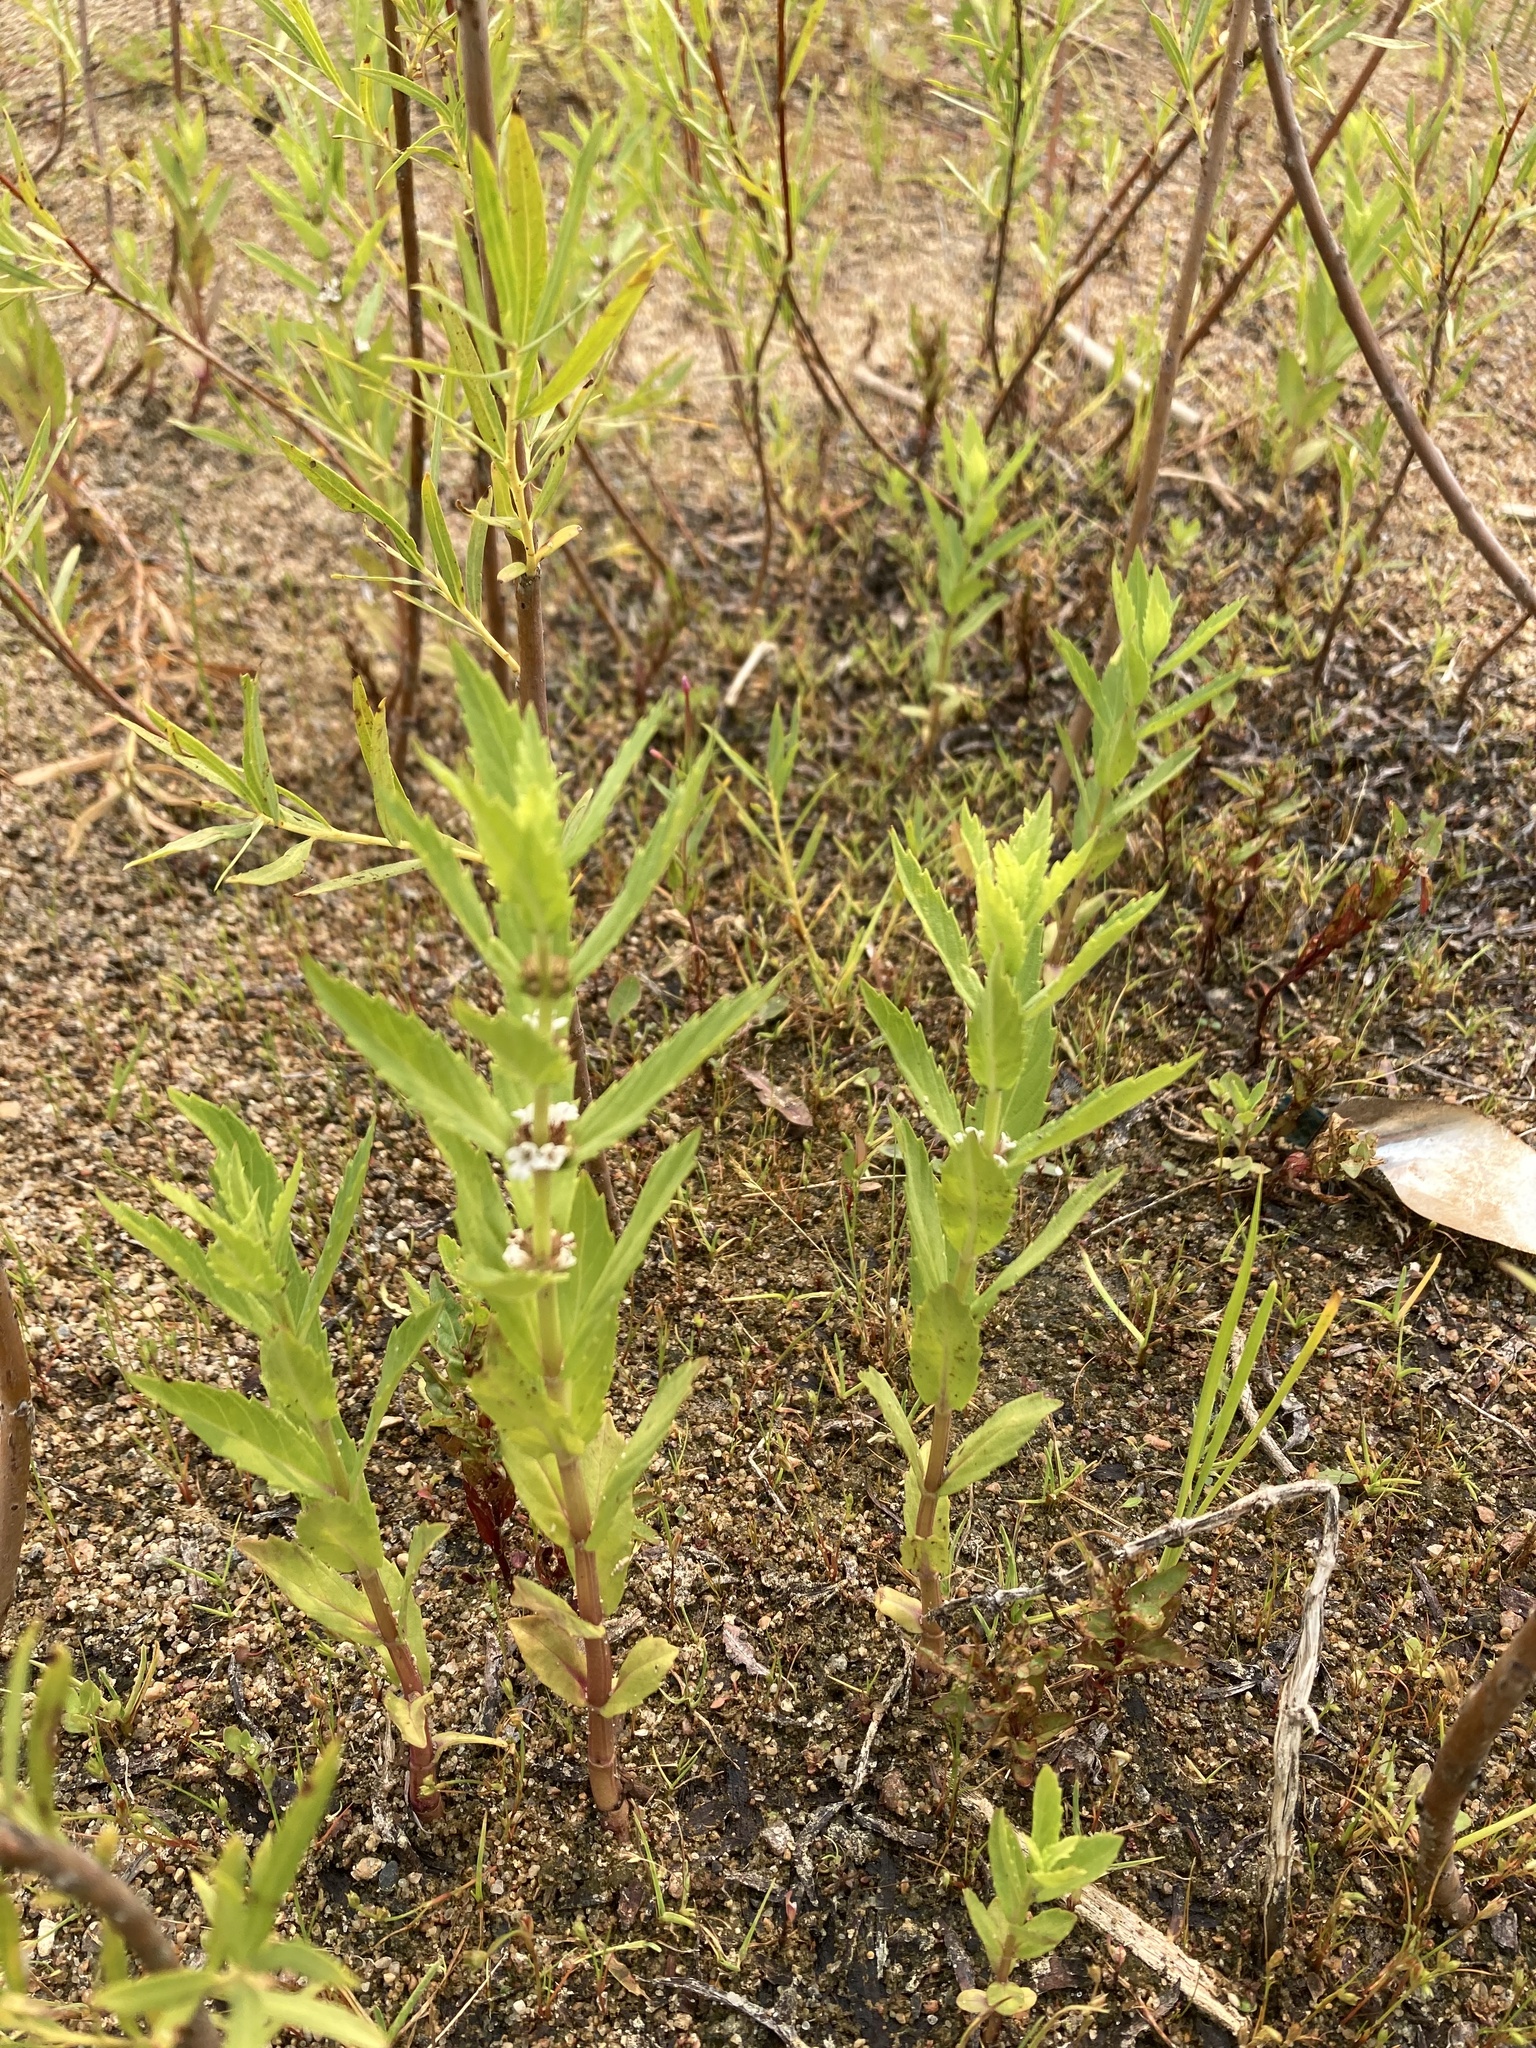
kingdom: Plantae
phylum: Tracheophyta
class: Magnoliopsida
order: Lamiales
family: Lamiaceae
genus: Lycopus
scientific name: Lycopus asper
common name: Rough water-horehound
